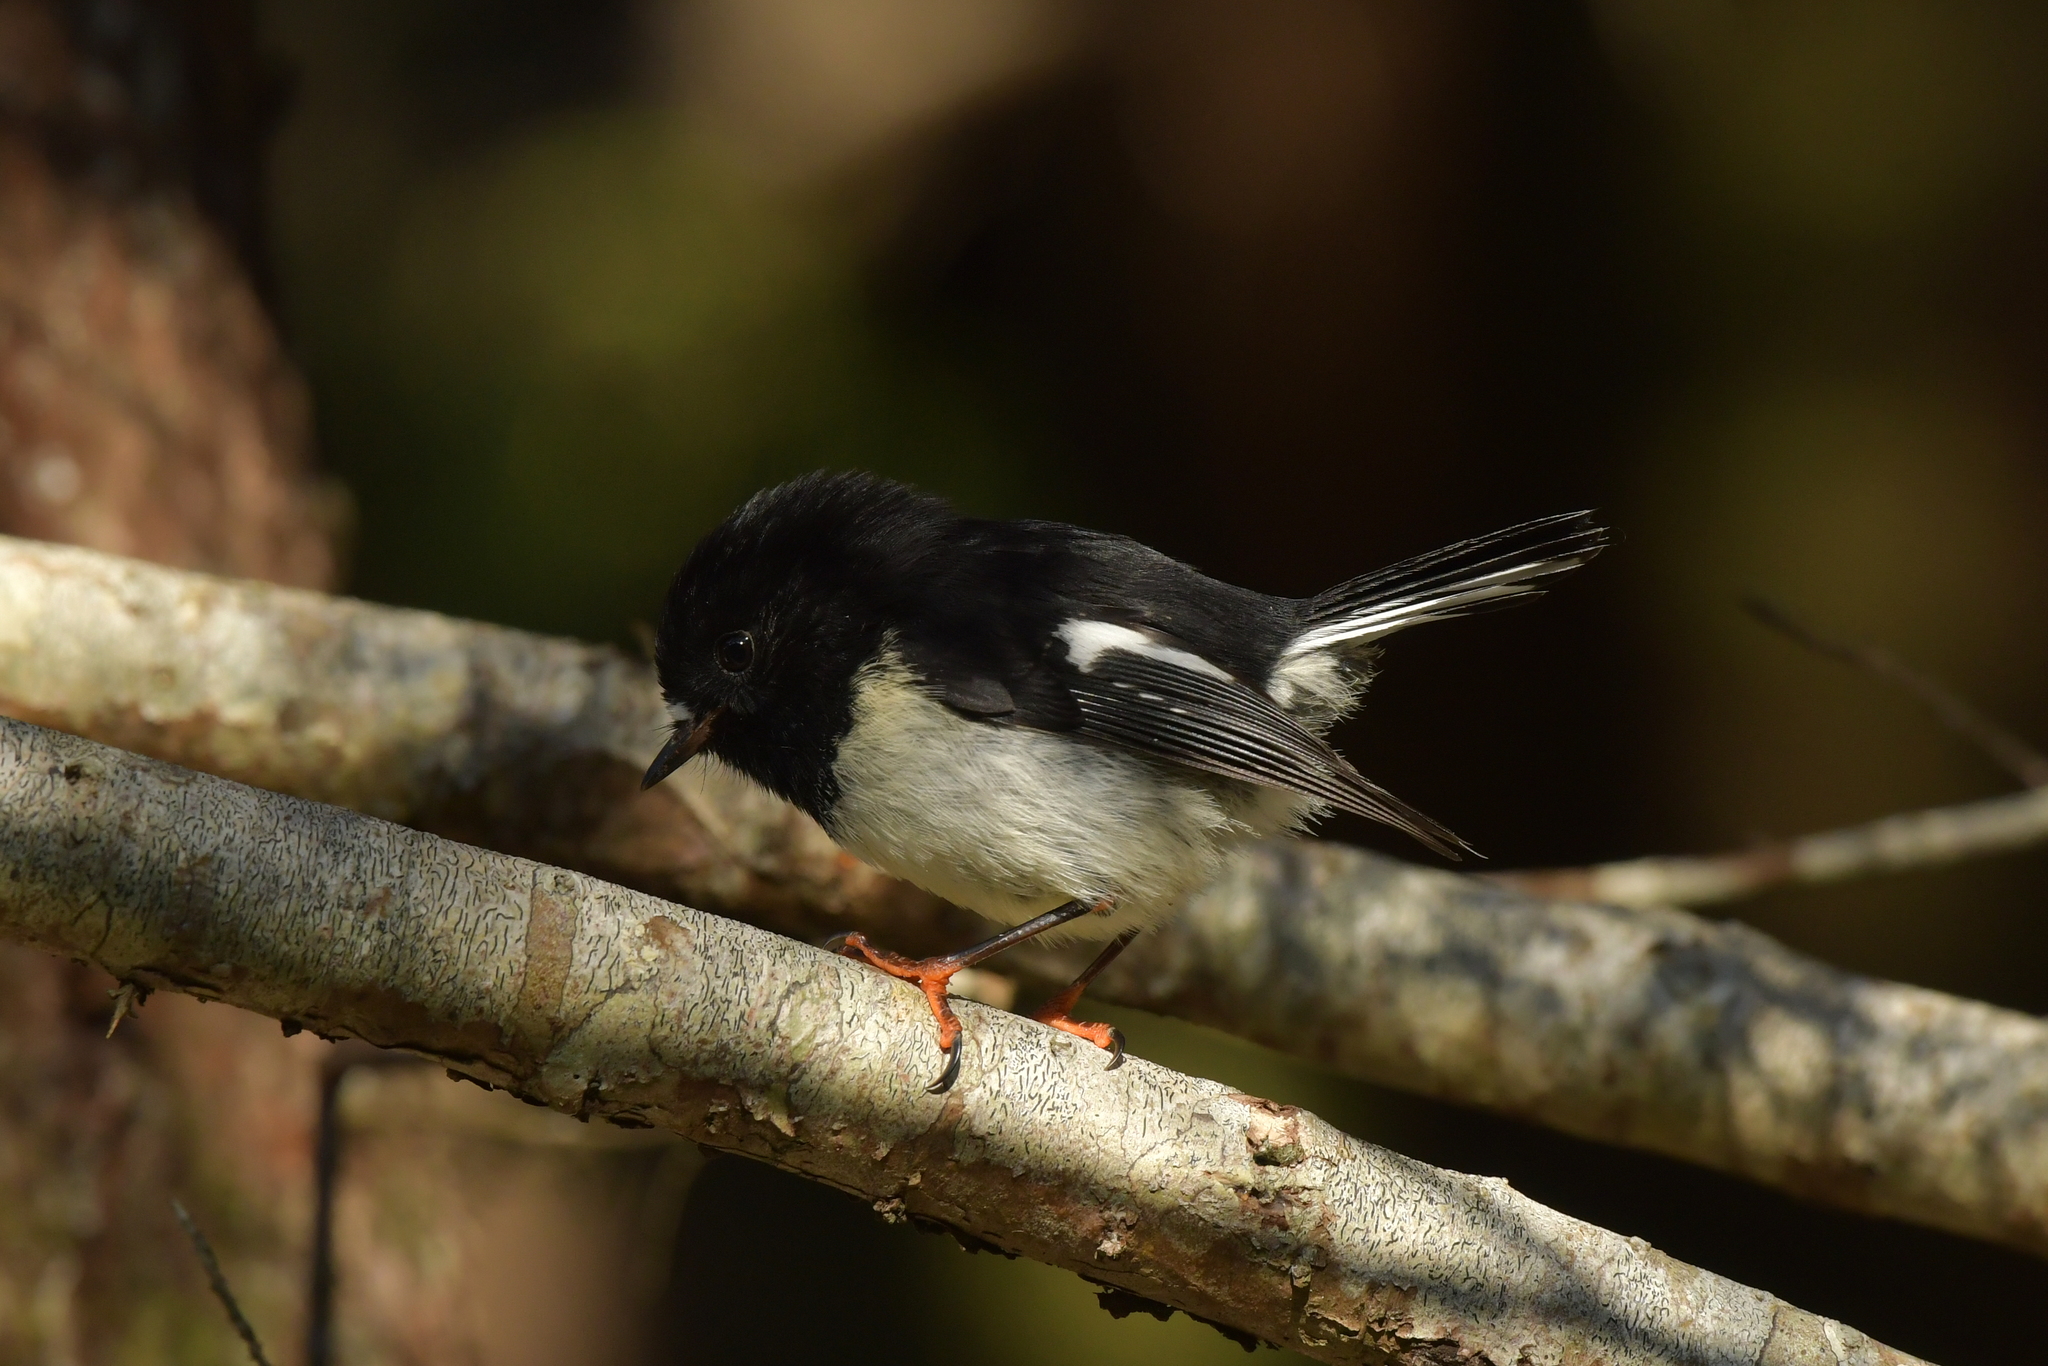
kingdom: Animalia
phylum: Chordata
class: Aves
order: Passeriformes
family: Petroicidae
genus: Petroica
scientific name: Petroica macrocephala
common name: Tomtit
